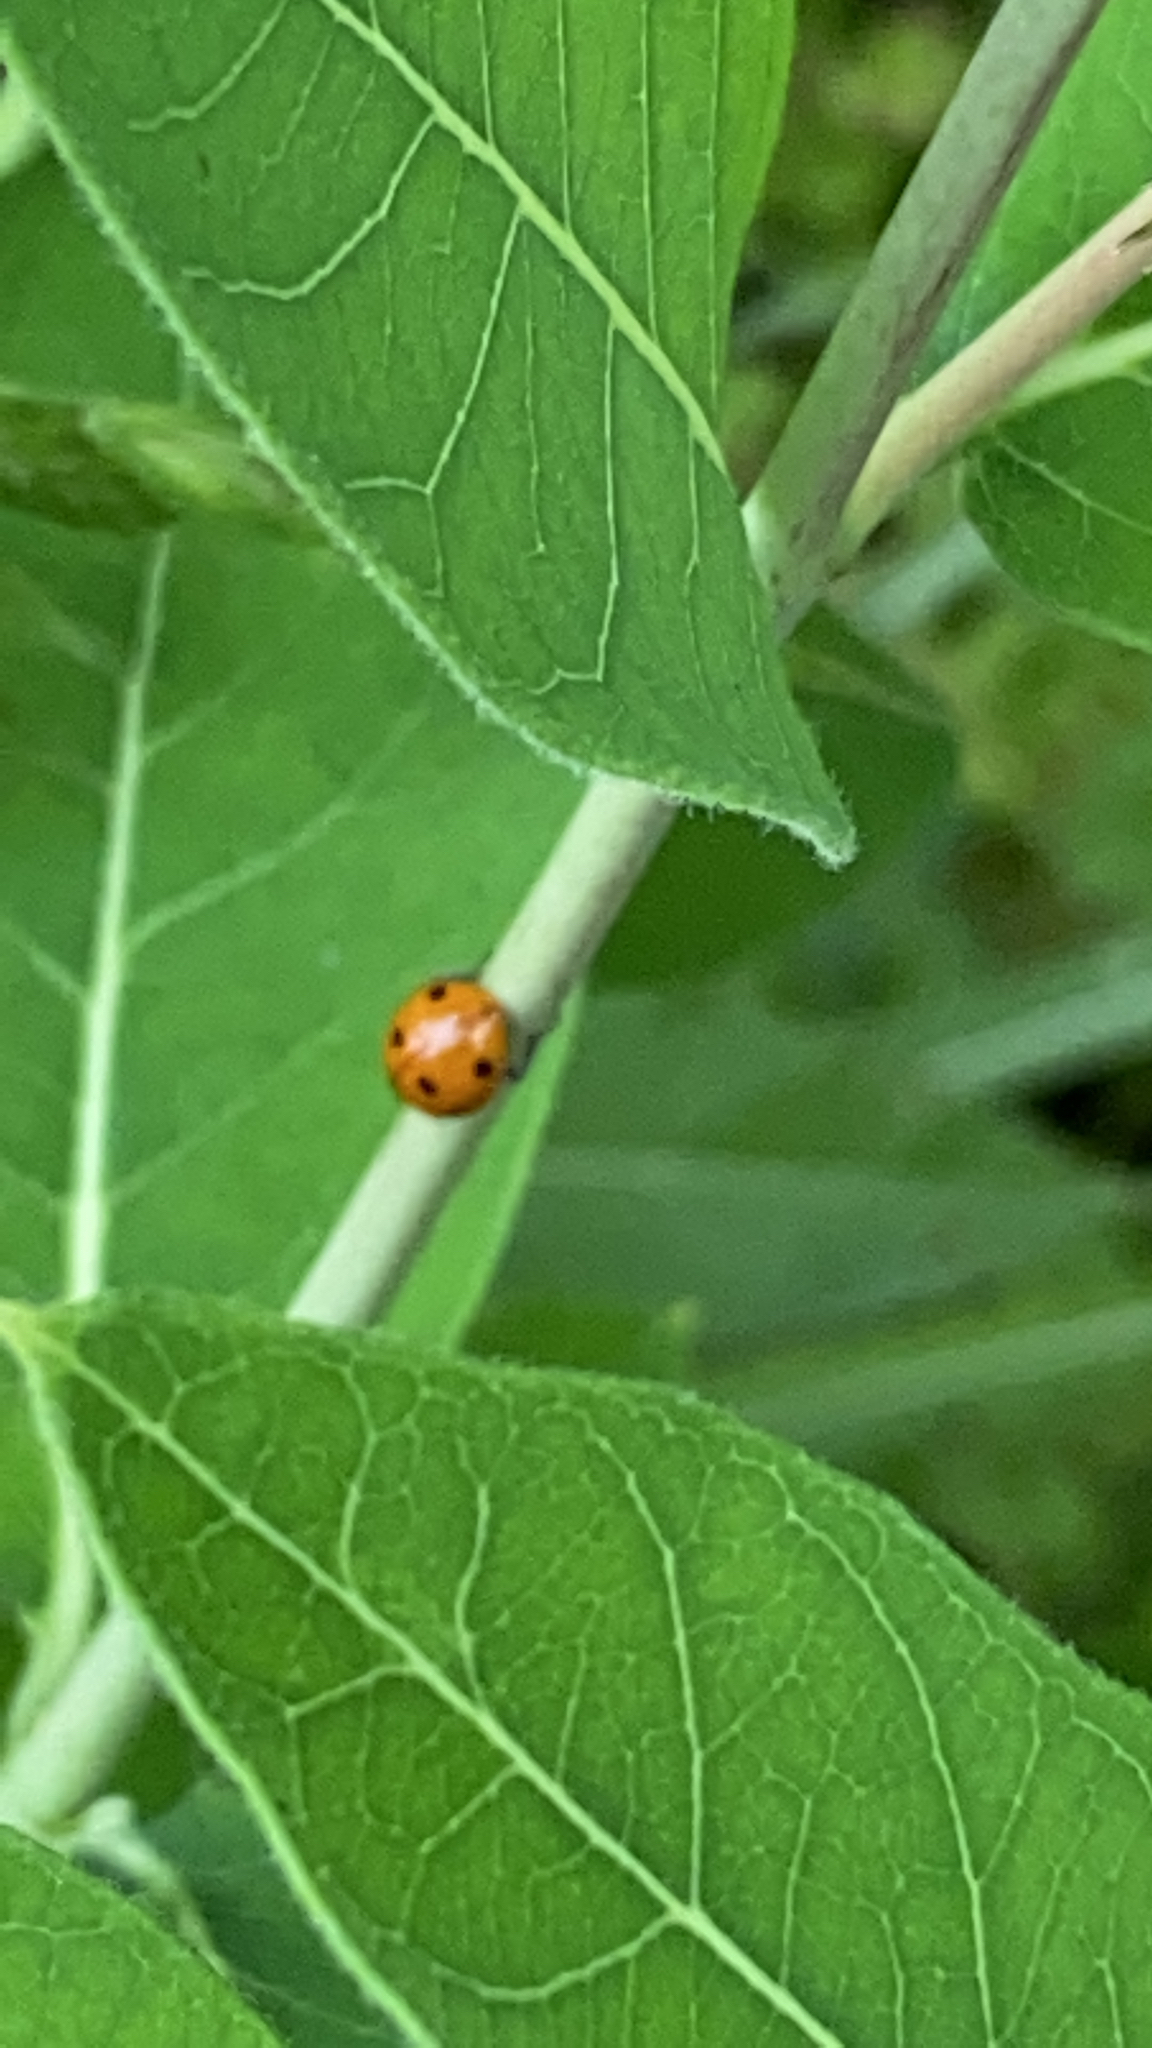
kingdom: Animalia
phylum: Arthropoda
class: Insecta
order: Coleoptera
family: Coccinellidae
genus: Coccinella
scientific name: Coccinella septempunctata
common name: Sevenspotted lady beetle
